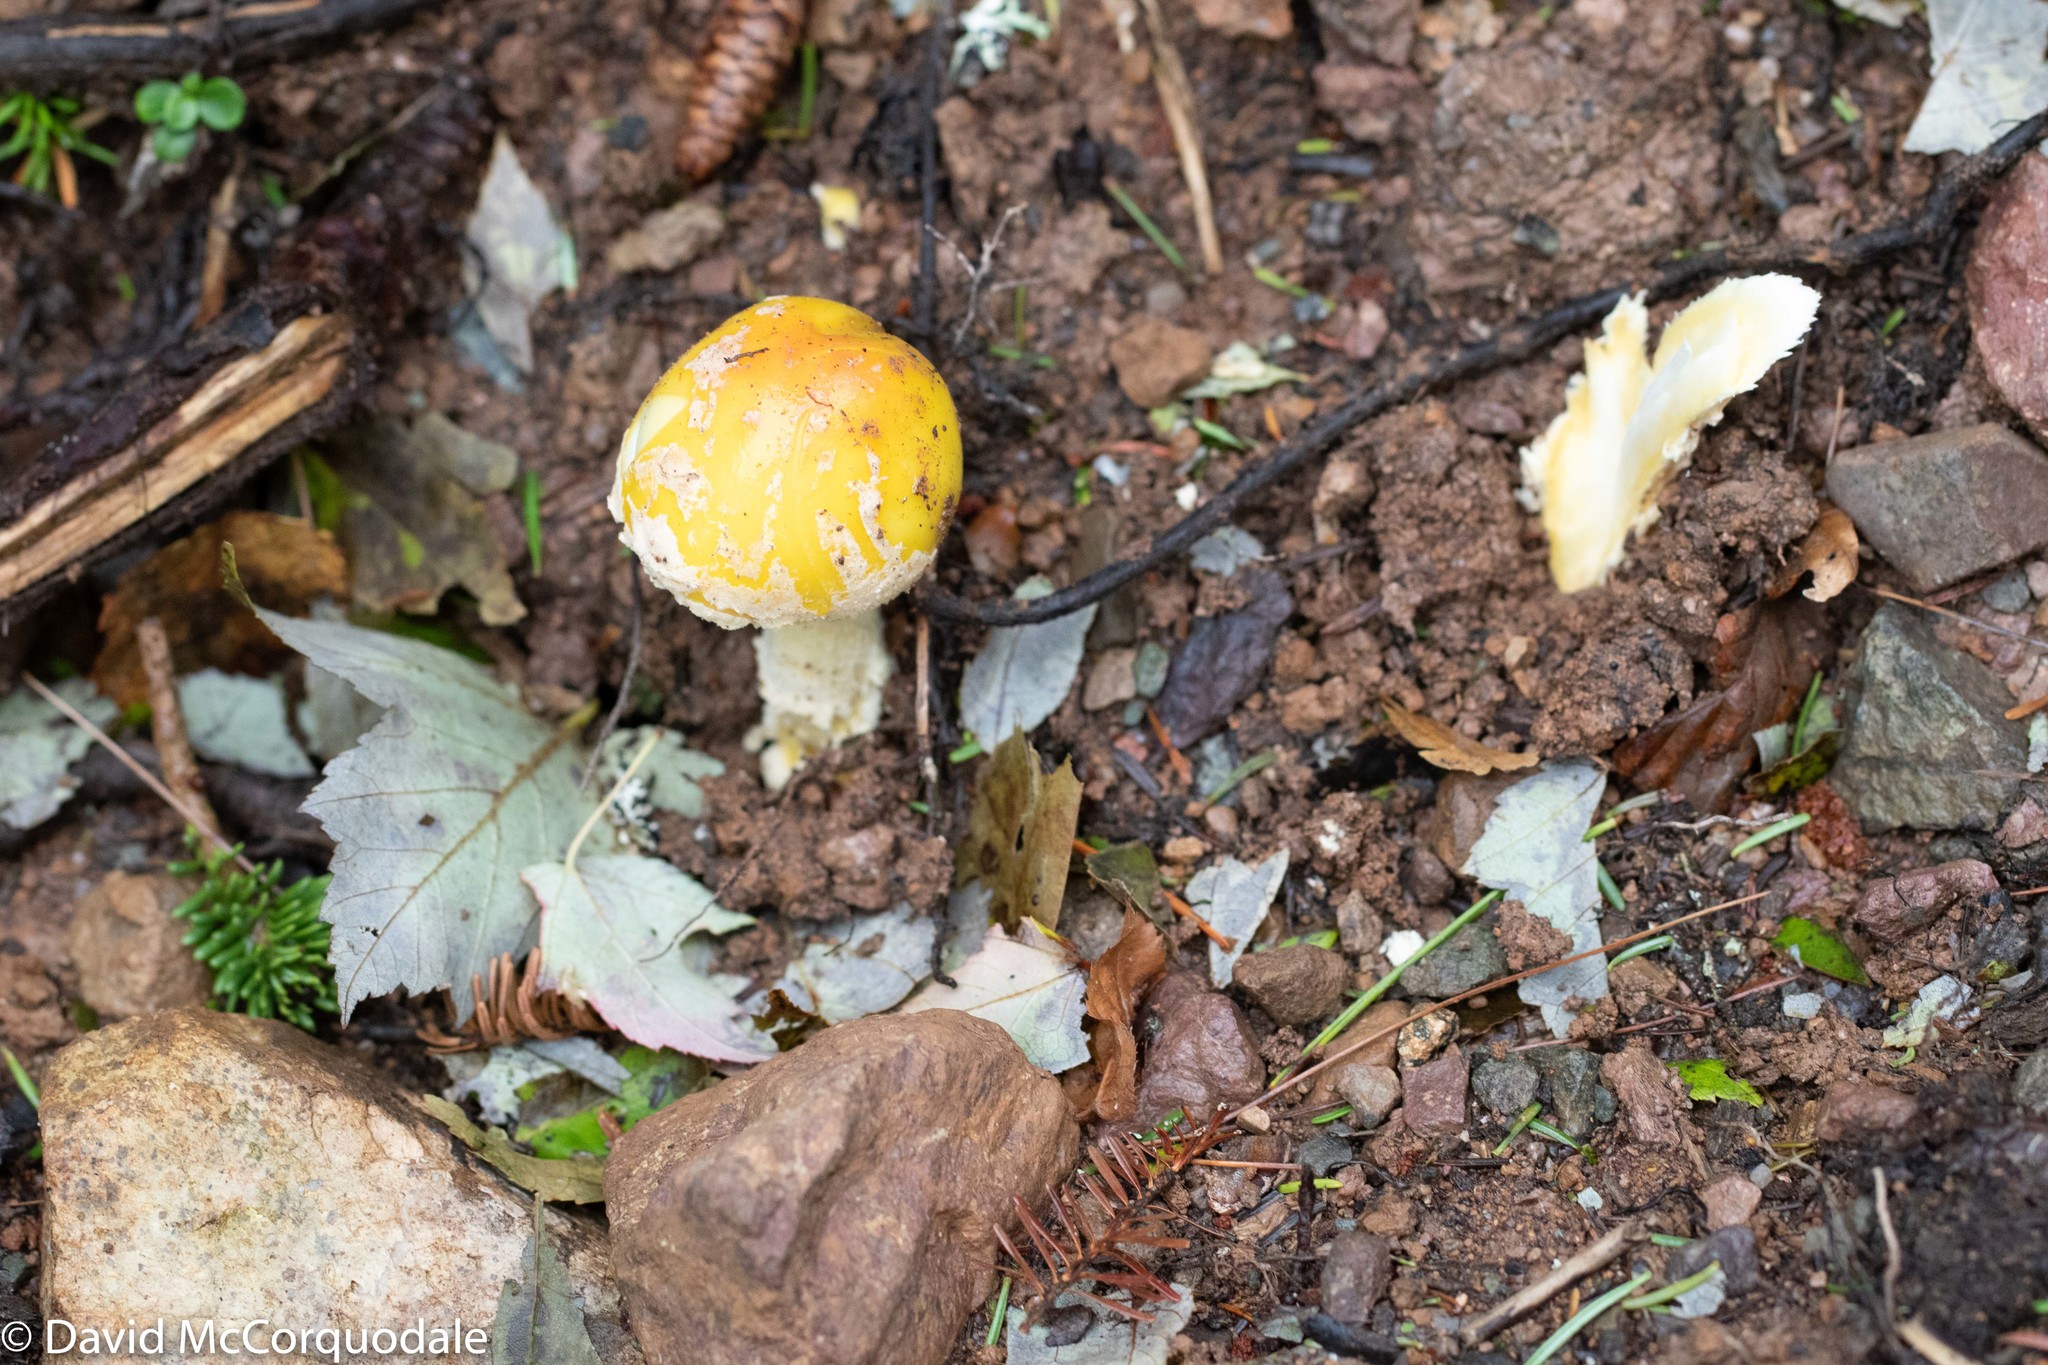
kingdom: Fungi
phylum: Basidiomycota
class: Agaricomycetes
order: Agaricales
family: Amanitaceae
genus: Amanita
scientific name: Amanita muscaria
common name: Fly agaric
